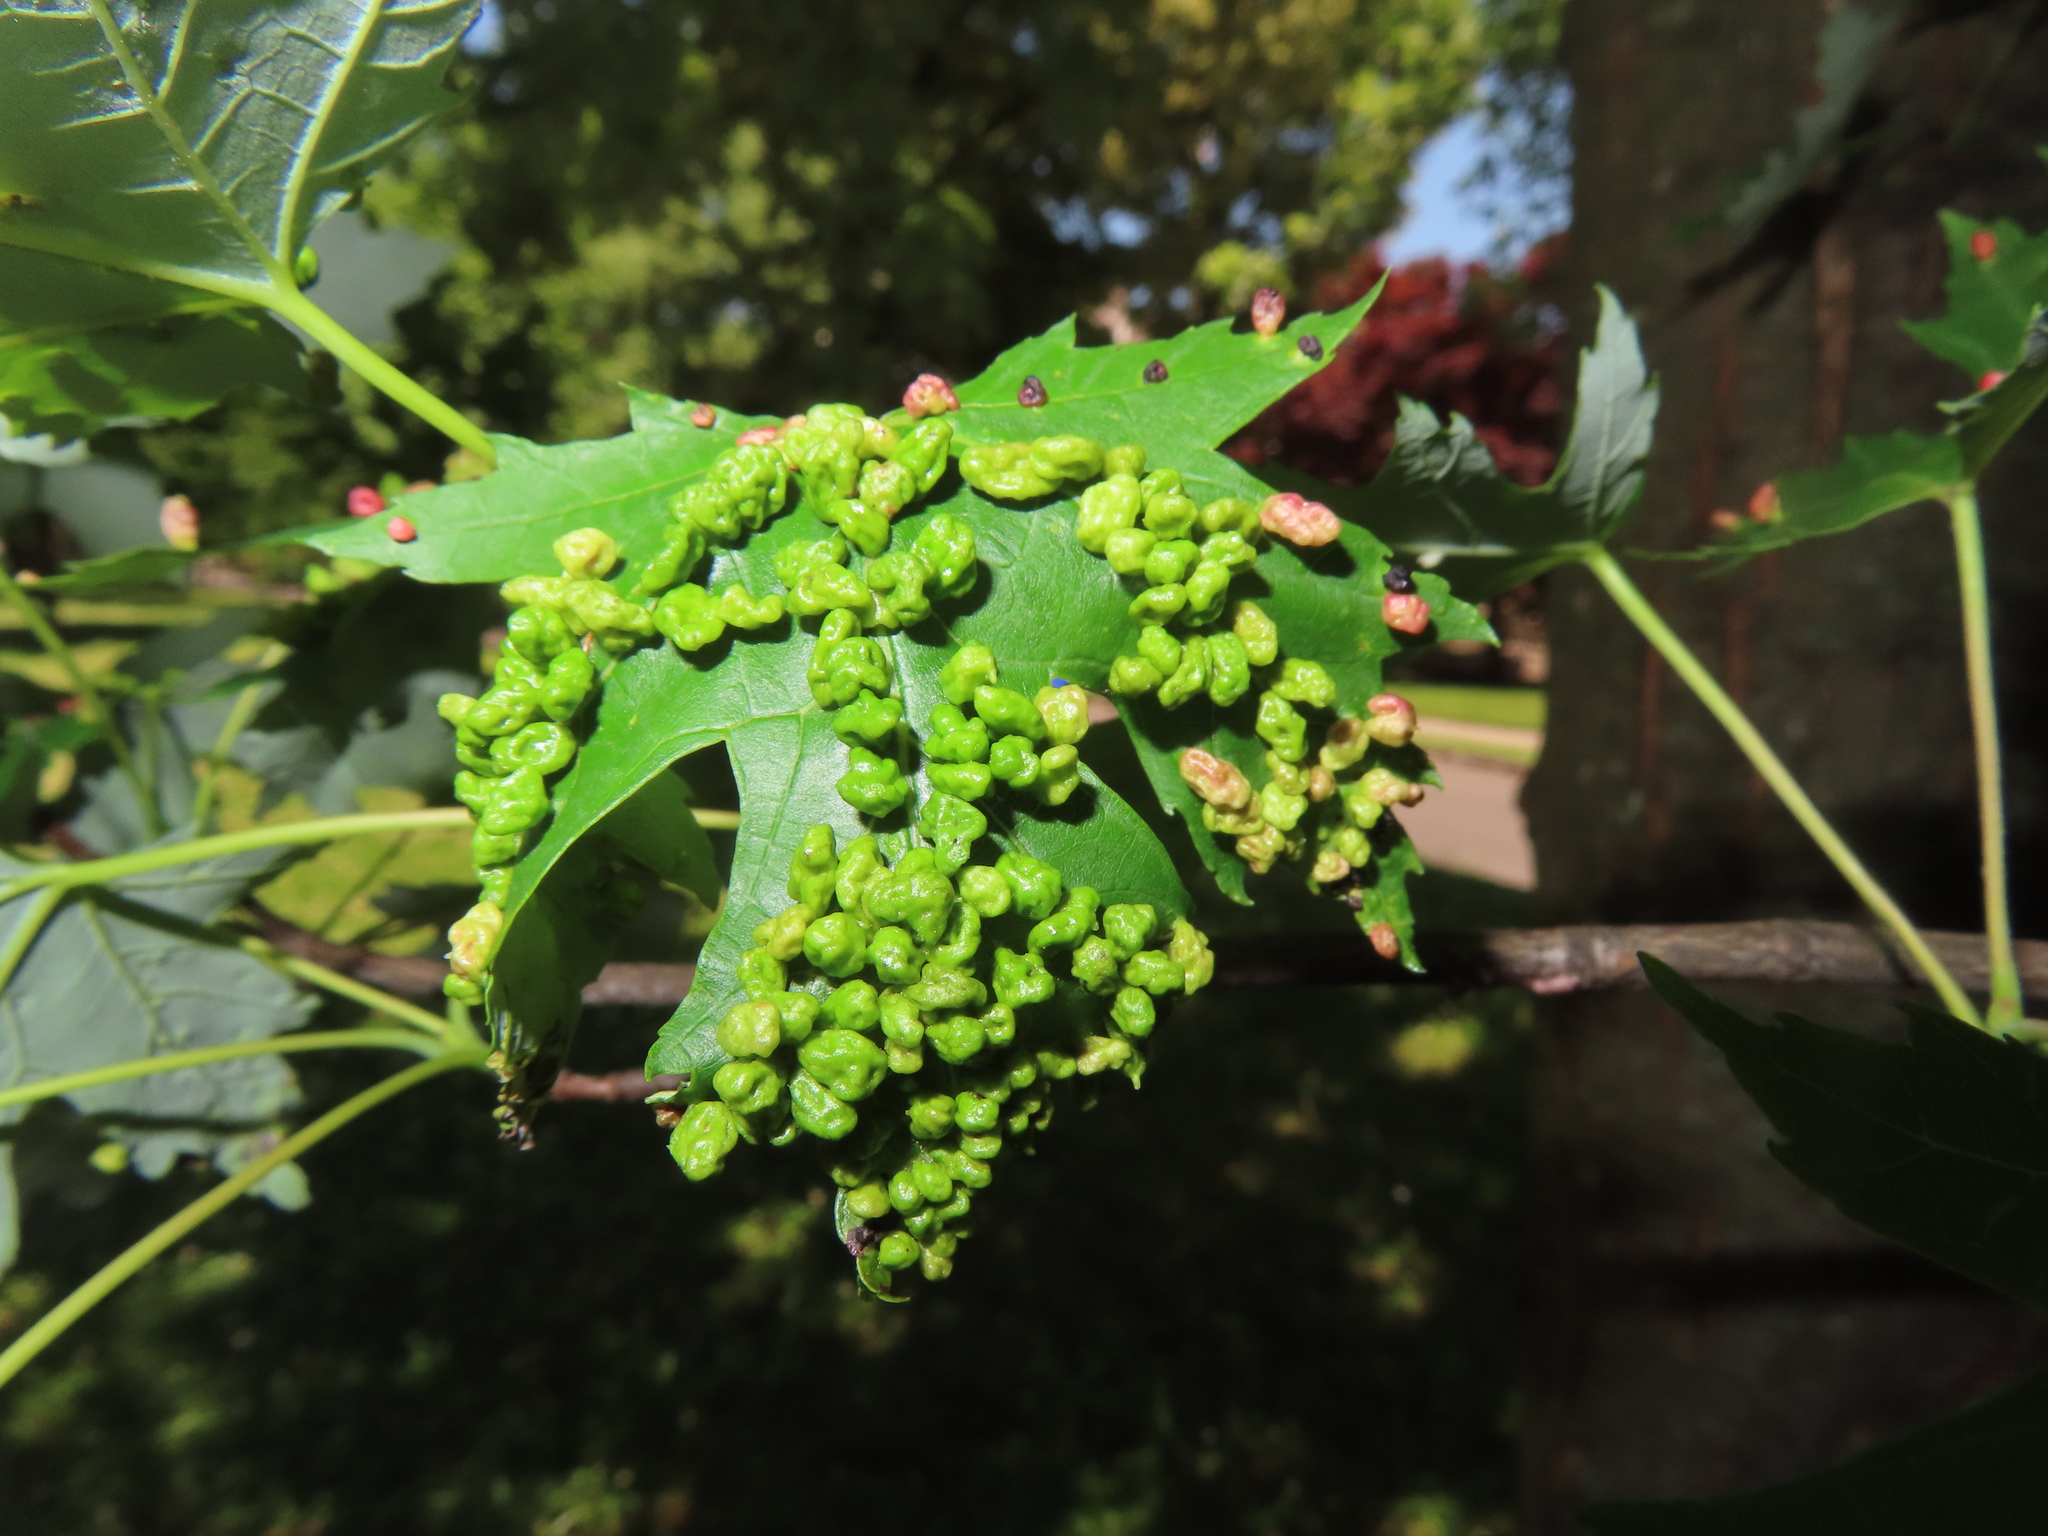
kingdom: Animalia
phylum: Arthropoda
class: Arachnida
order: Trombidiformes
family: Eriophyidae
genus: Vasates
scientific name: Vasates quadripedes
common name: Maple bladder gall mite
